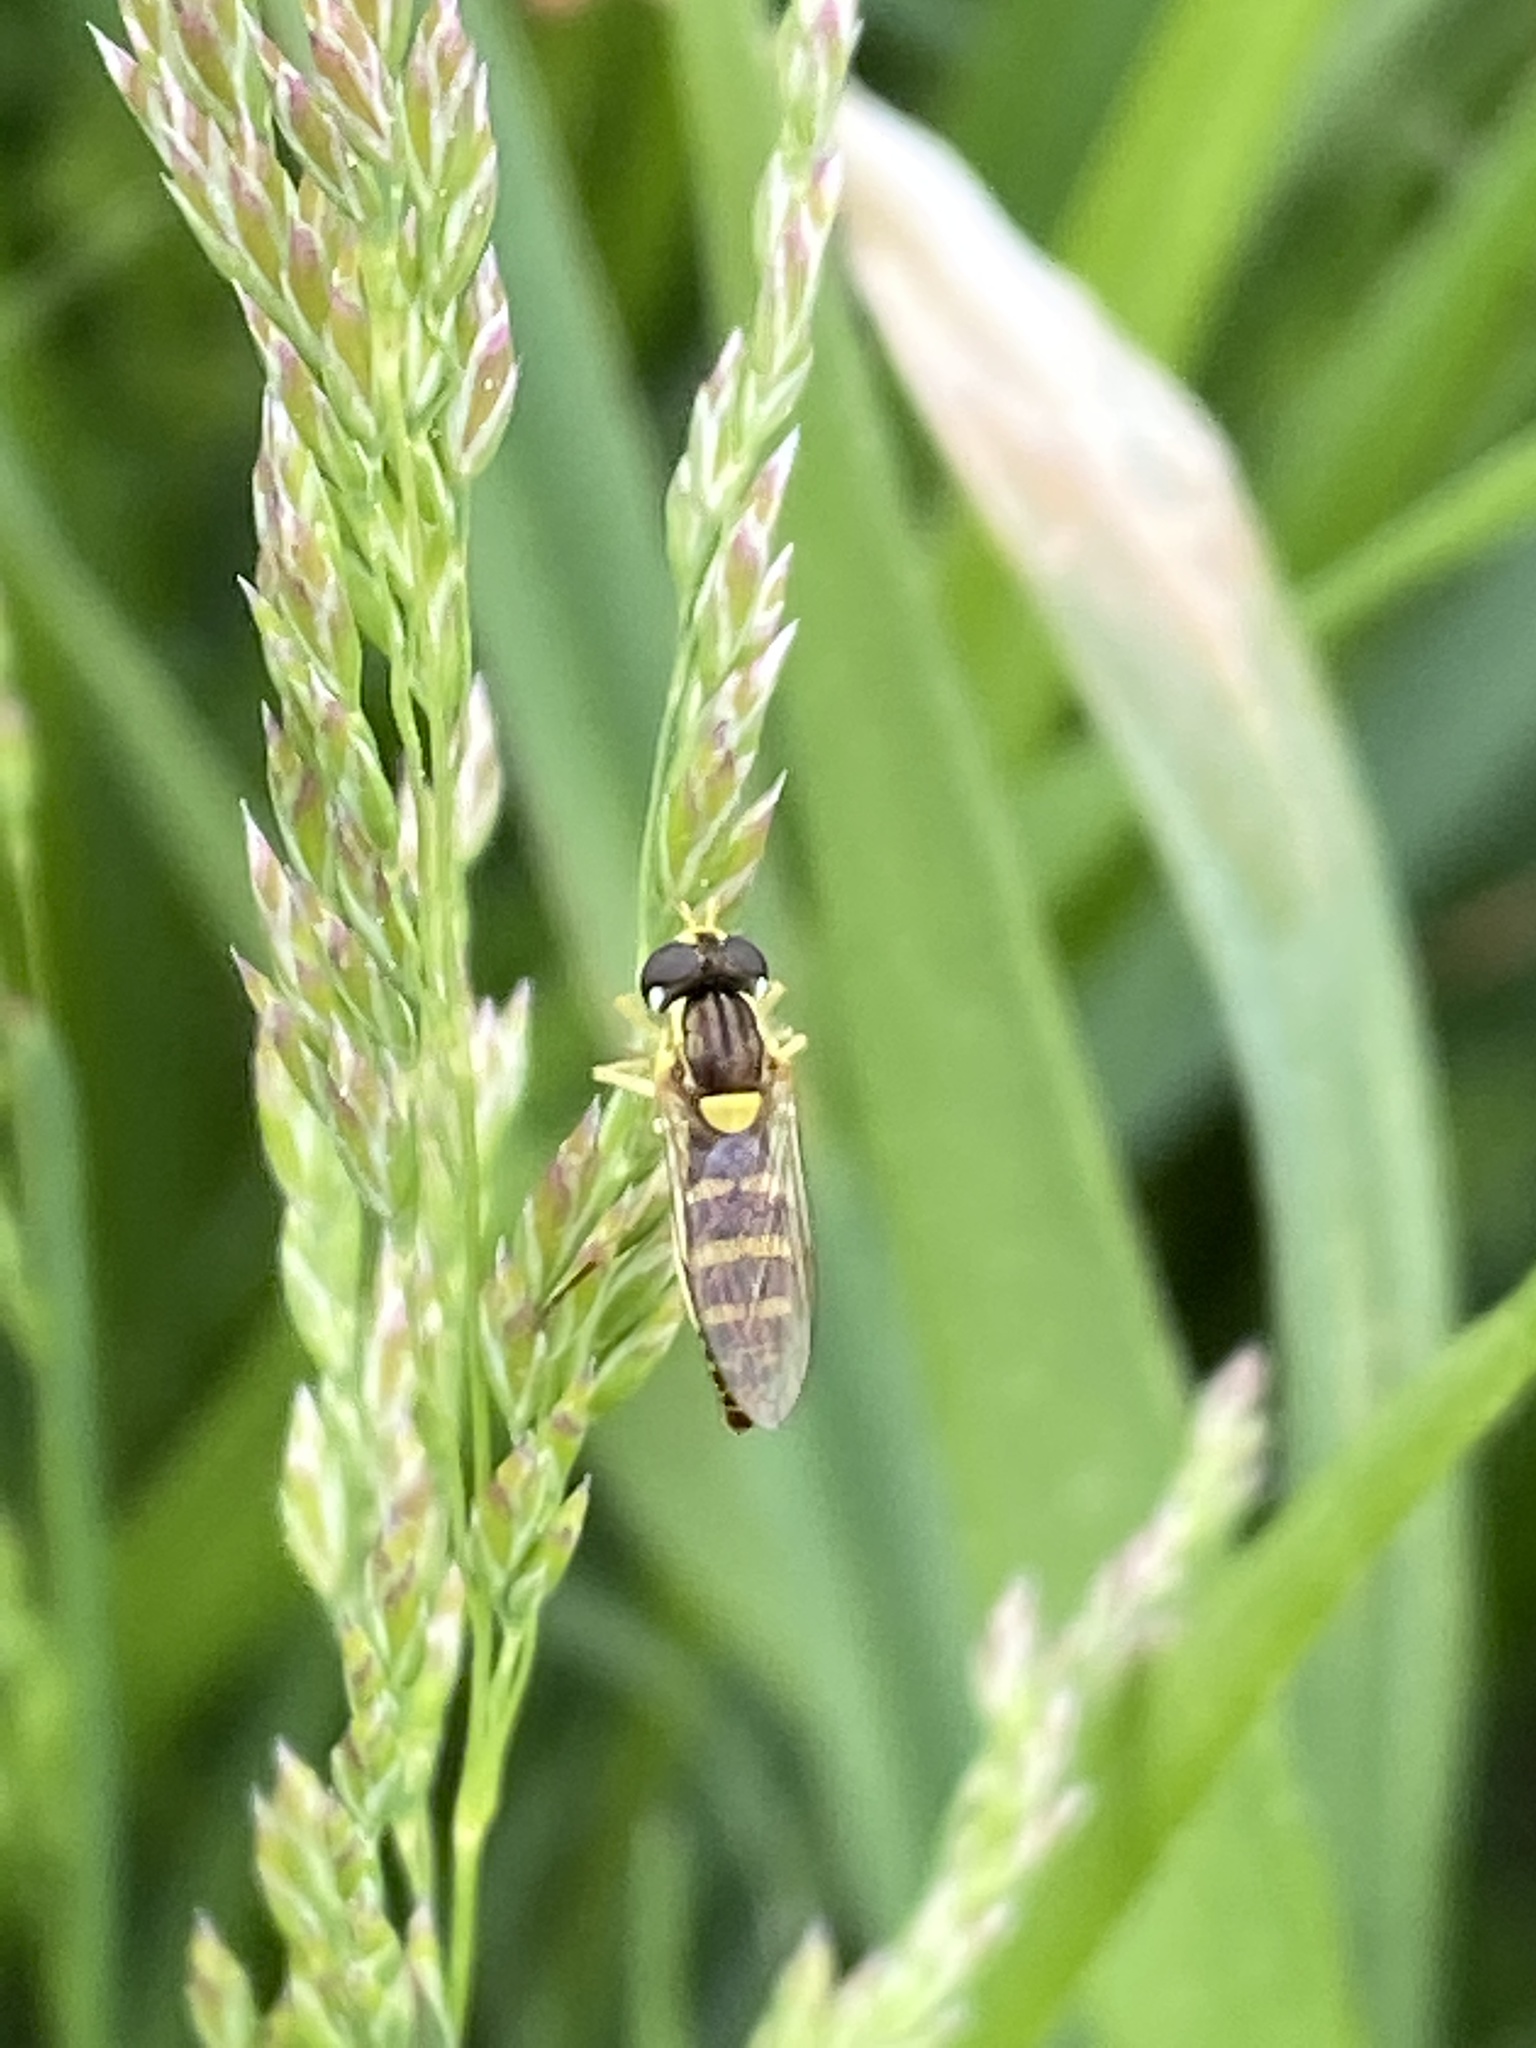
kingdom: Animalia
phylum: Arthropoda
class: Insecta
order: Diptera
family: Syrphidae
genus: Sphaerophoria
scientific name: Sphaerophoria
